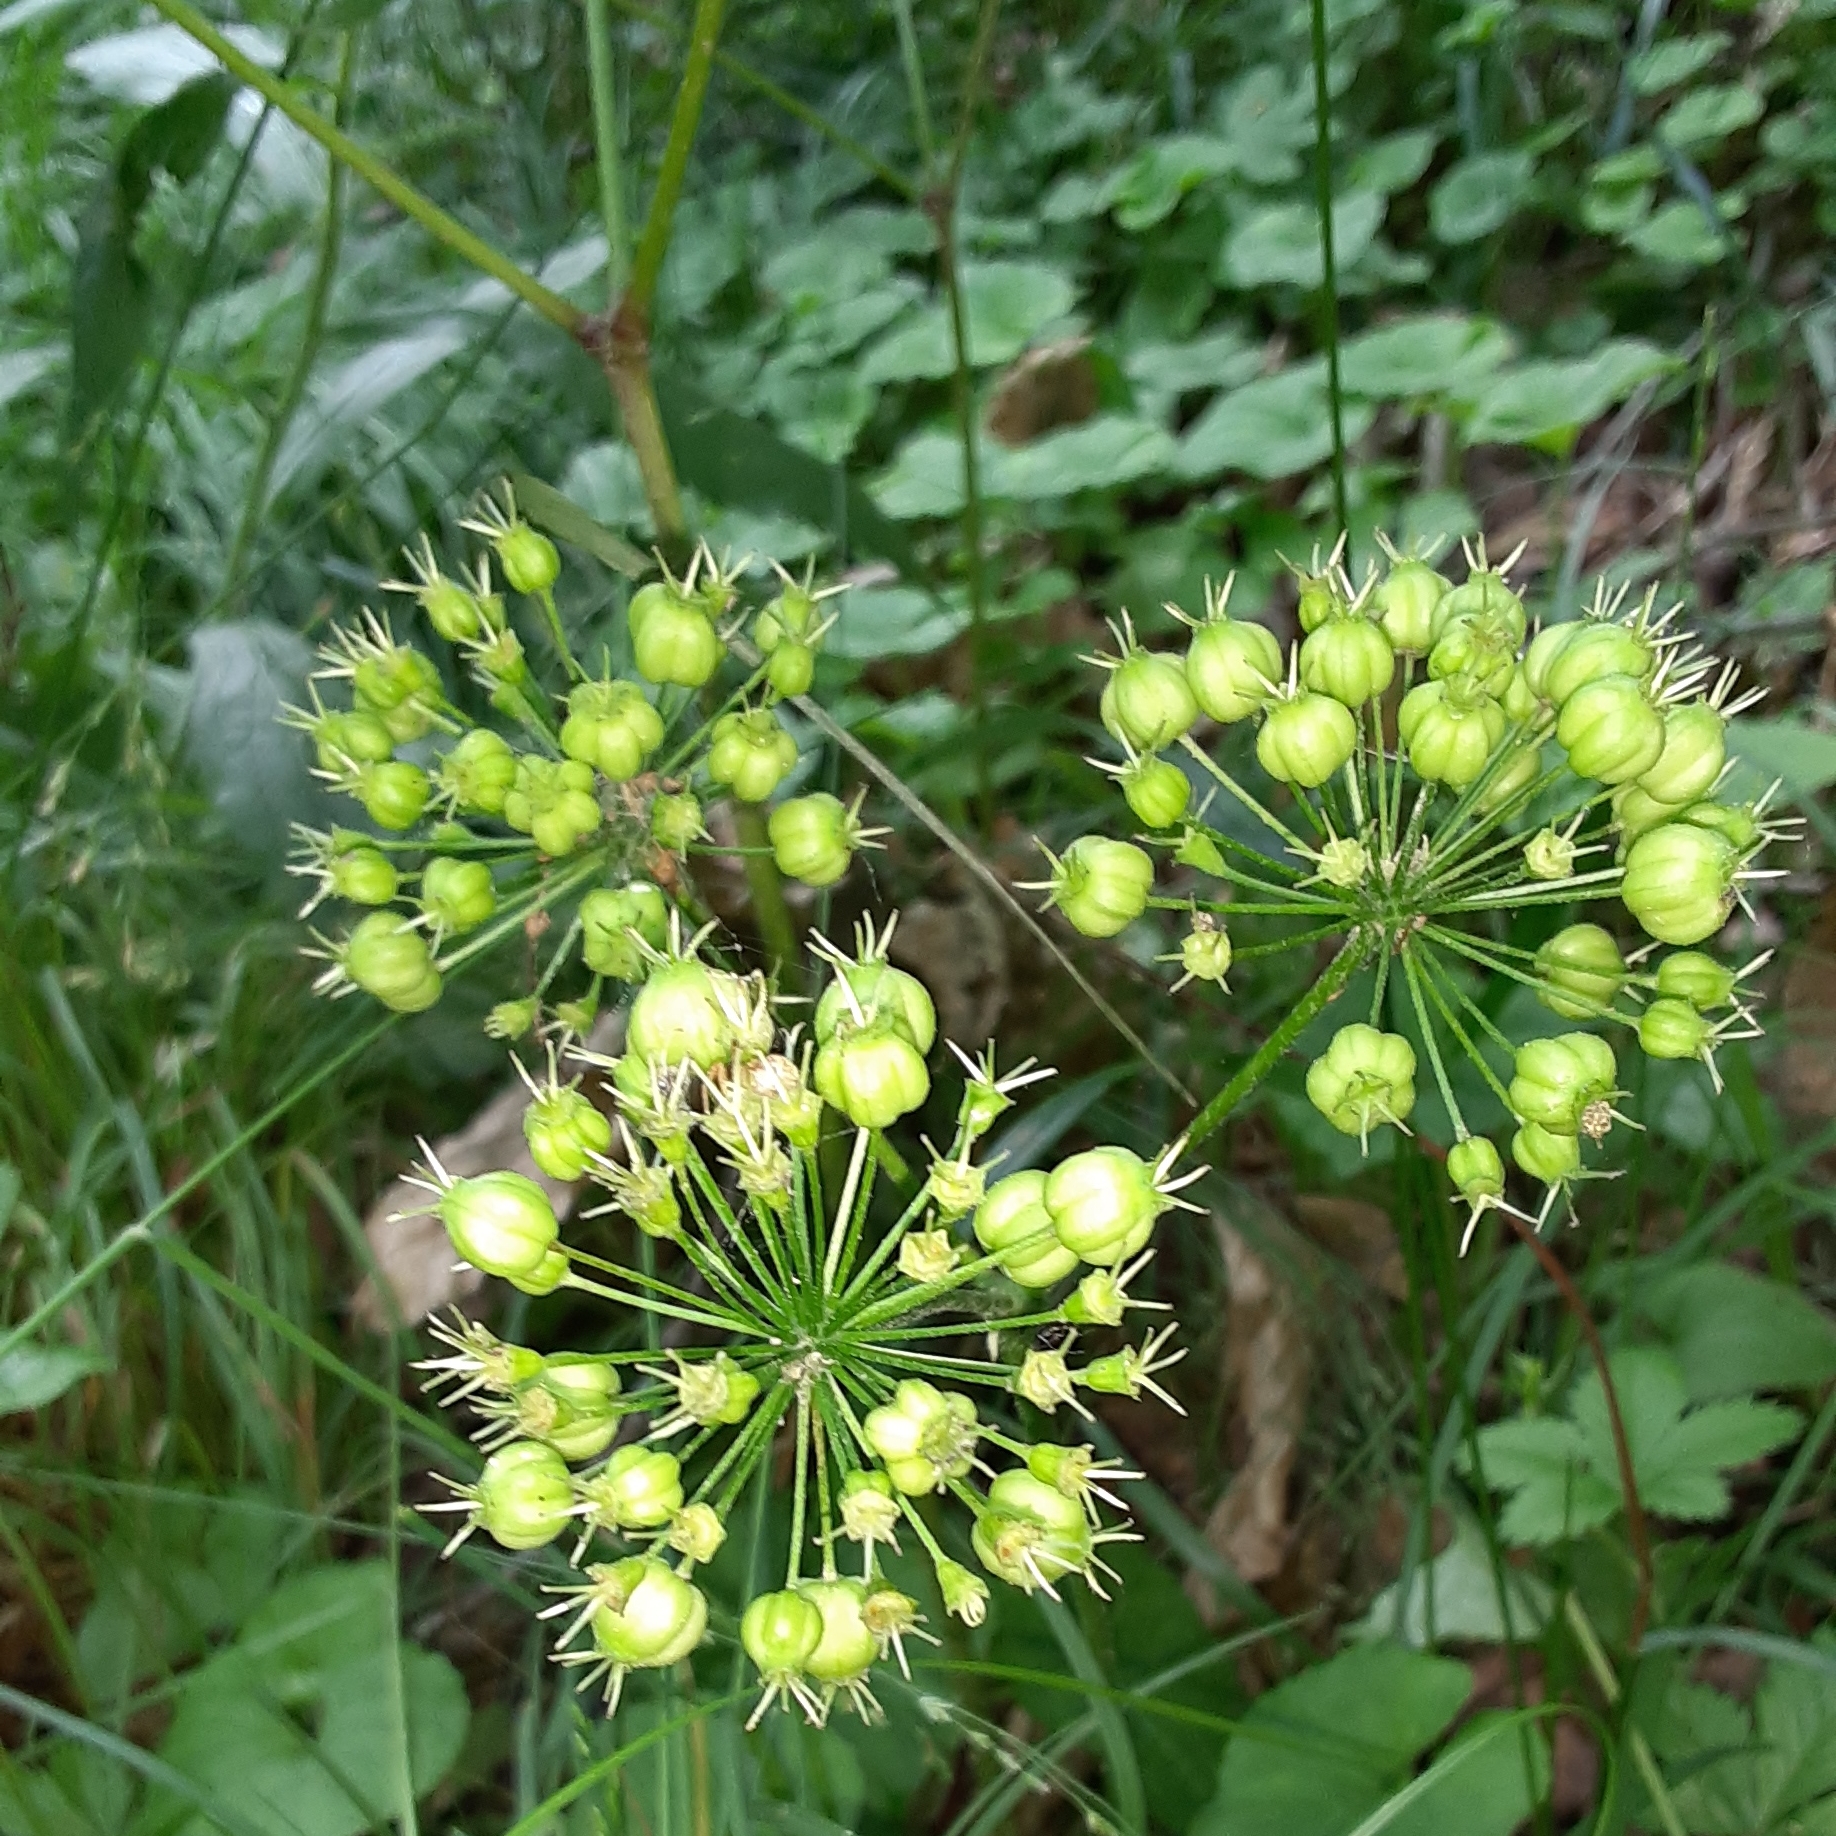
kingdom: Plantae
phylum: Tracheophyta
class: Magnoliopsida
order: Apiales
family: Araliaceae
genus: Aralia
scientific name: Aralia nudicaulis
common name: Wild sarsaparilla
